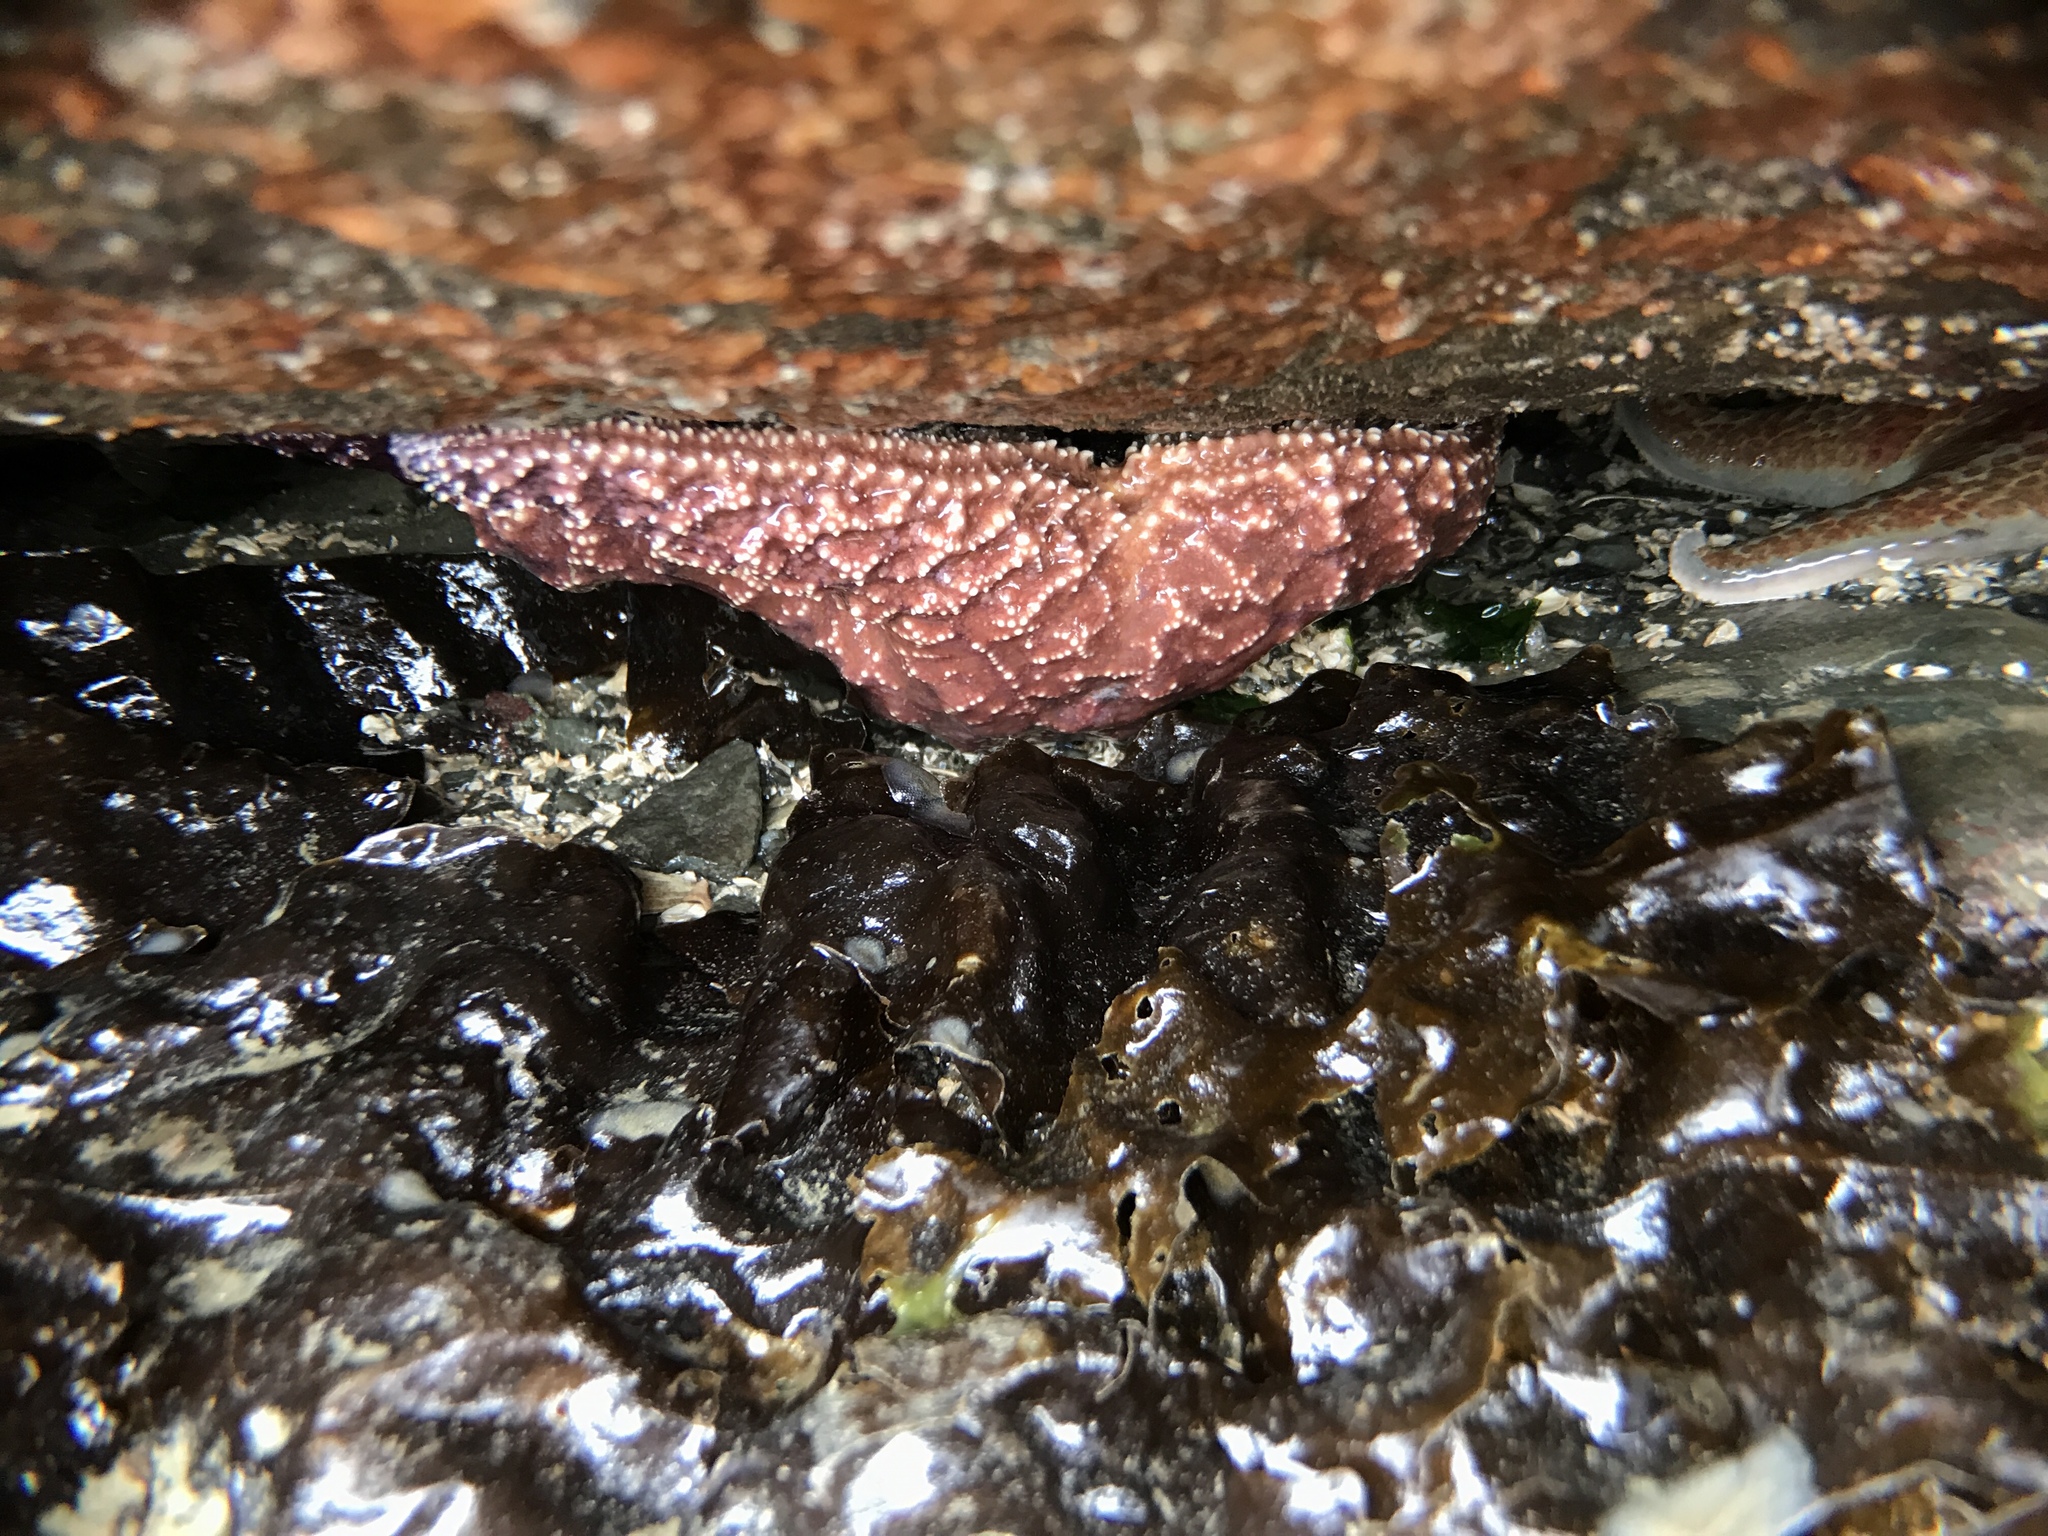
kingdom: Animalia
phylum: Echinodermata
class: Asteroidea
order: Forcipulatida
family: Asteriidae
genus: Pisaster
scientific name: Pisaster ochraceus
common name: Ochre stars
